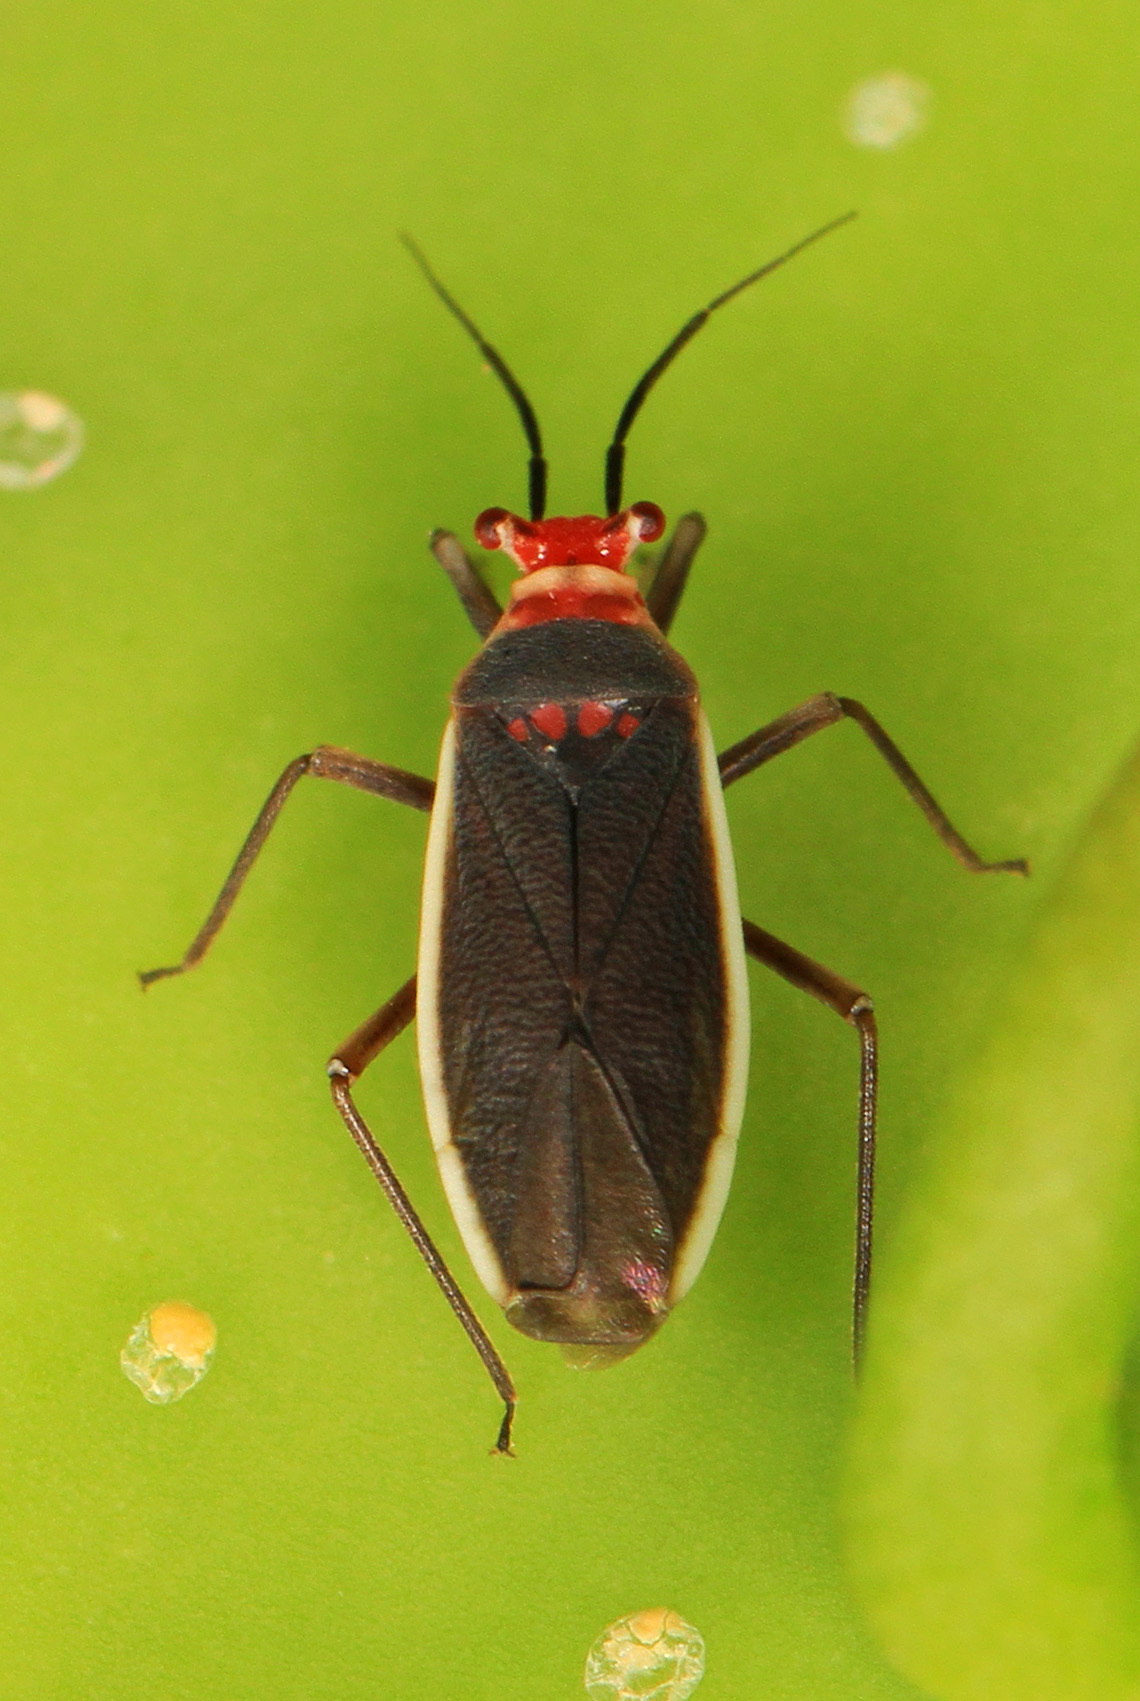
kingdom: Animalia
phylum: Arthropoda
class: Insecta
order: Hemiptera
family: Miridae
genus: Hesperolabops
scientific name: Hesperolabops gelastops
